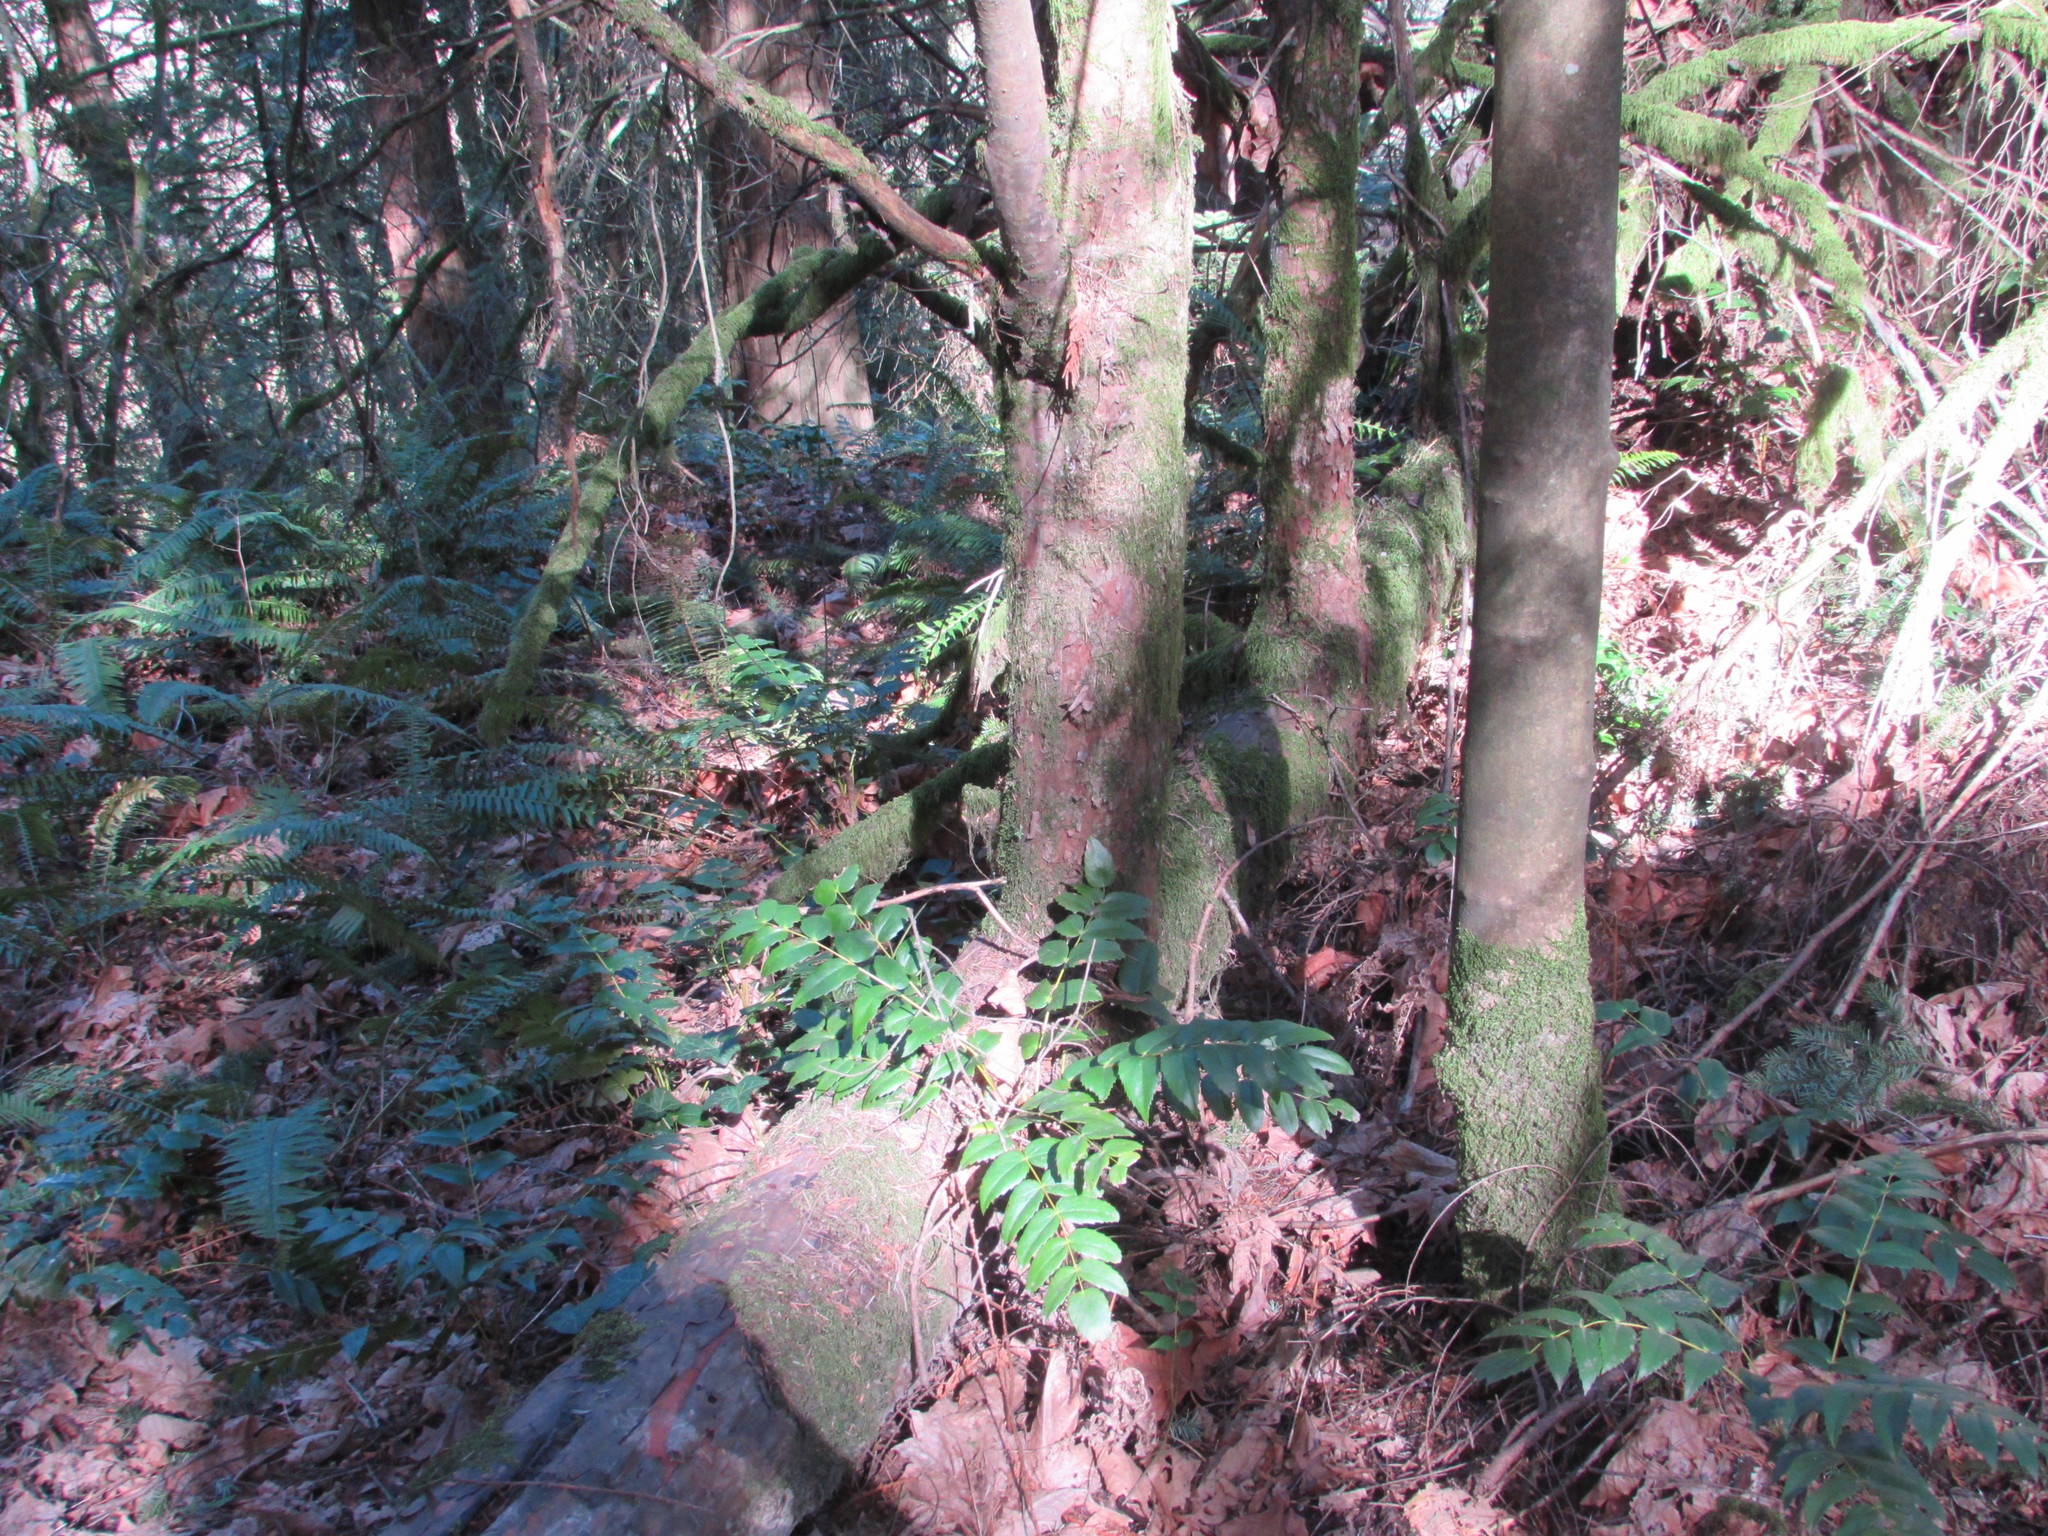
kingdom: Plantae
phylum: Tracheophyta
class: Pinopsida
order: Pinales
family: Taxaceae
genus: Taxus
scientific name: Taxus brevifolia
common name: Pacific yew
